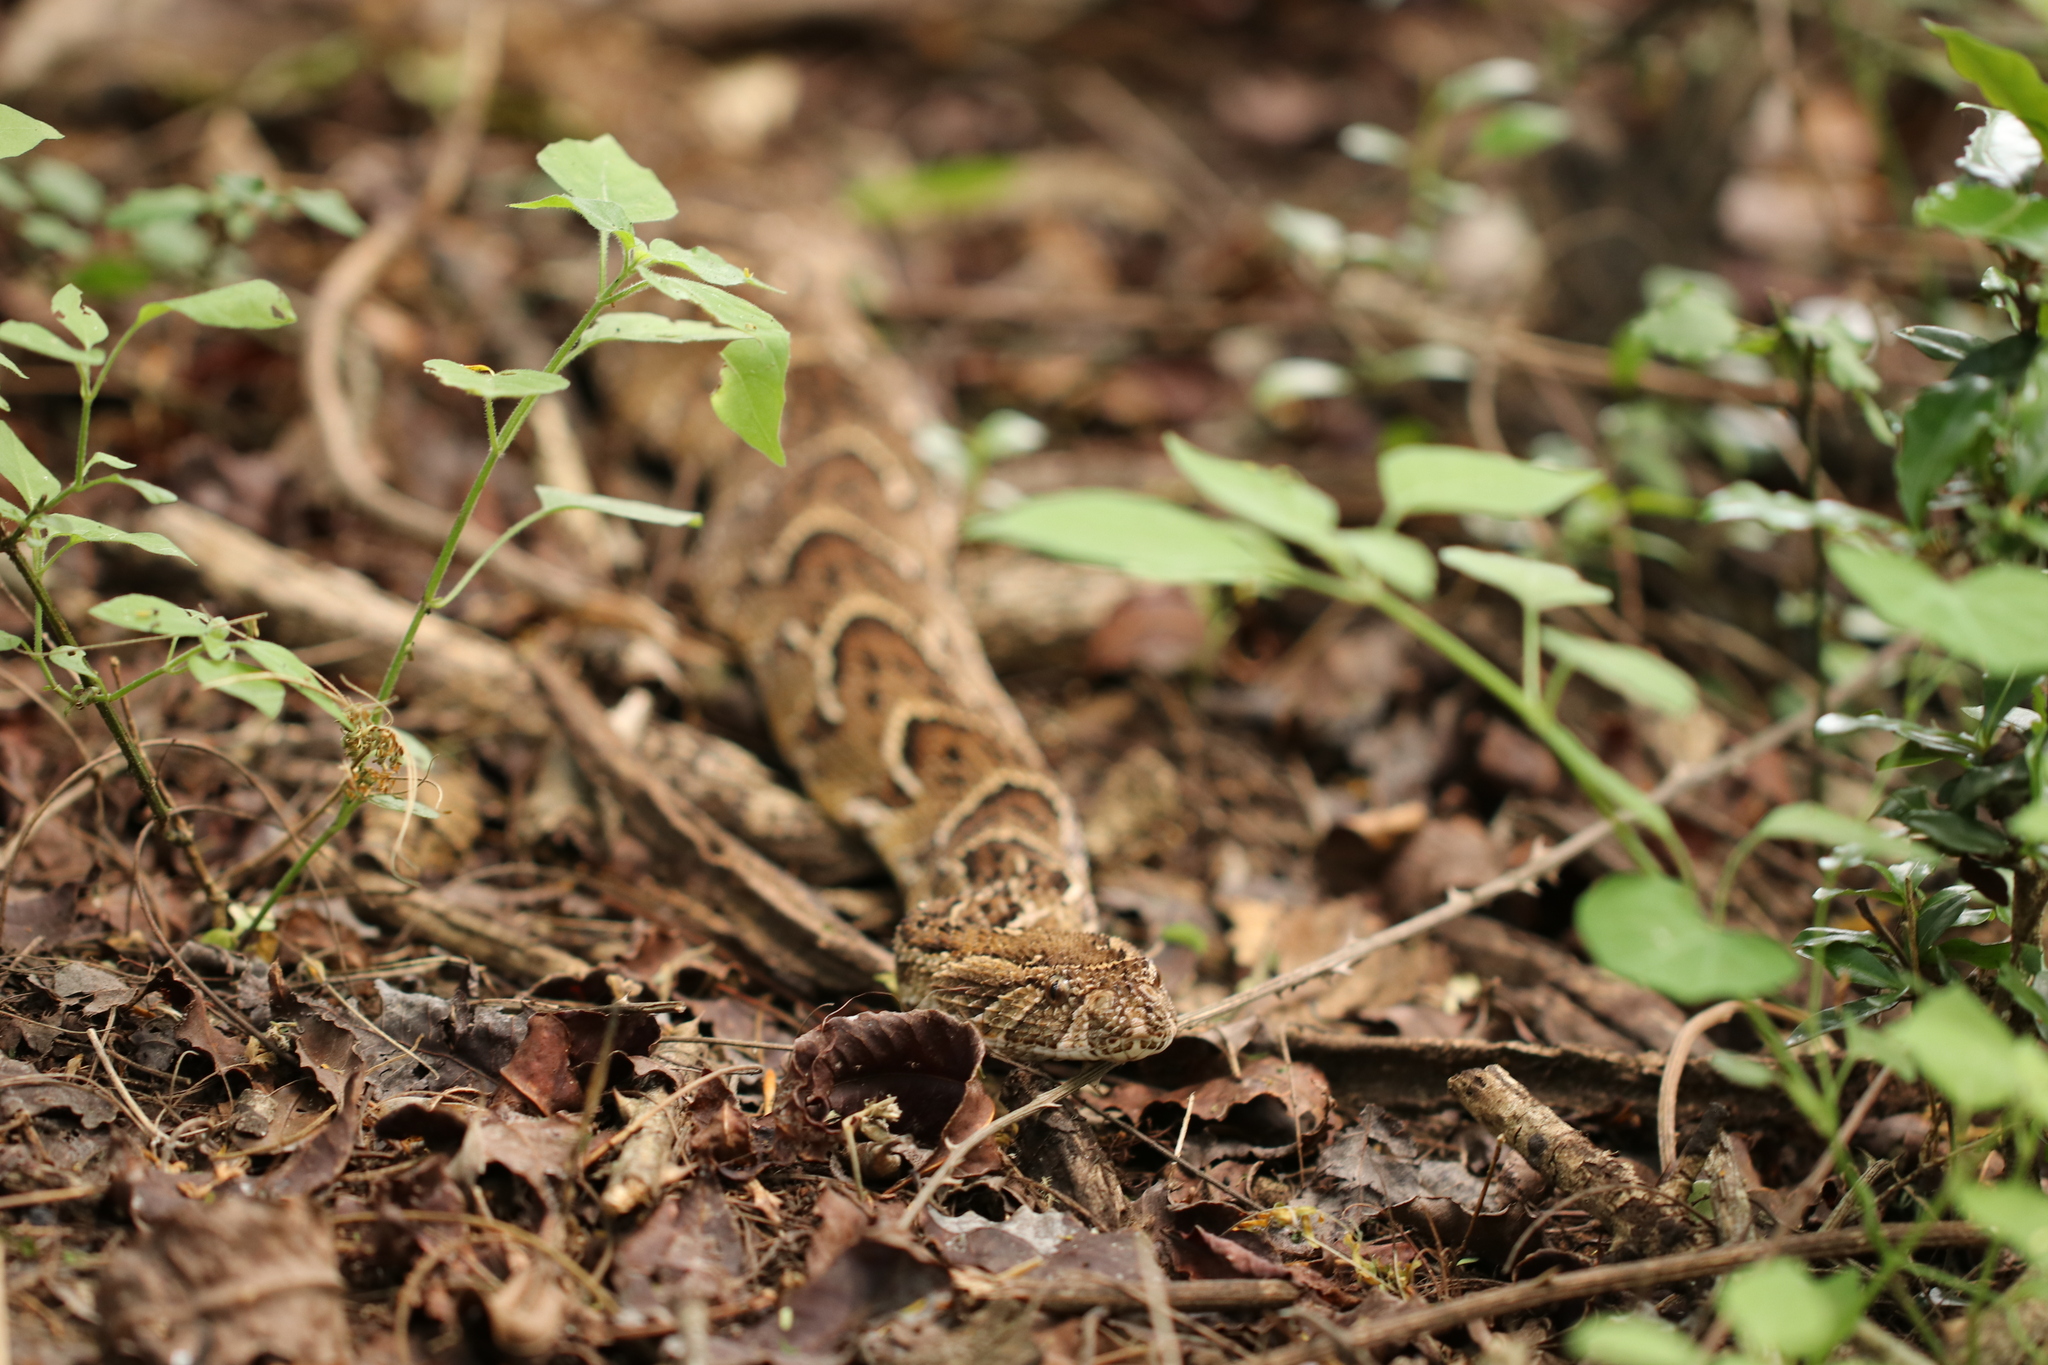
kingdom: Animalia
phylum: Chordata
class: Squamata
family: Viperidae
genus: Bitis
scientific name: Bitis arietans
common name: Puff adder
